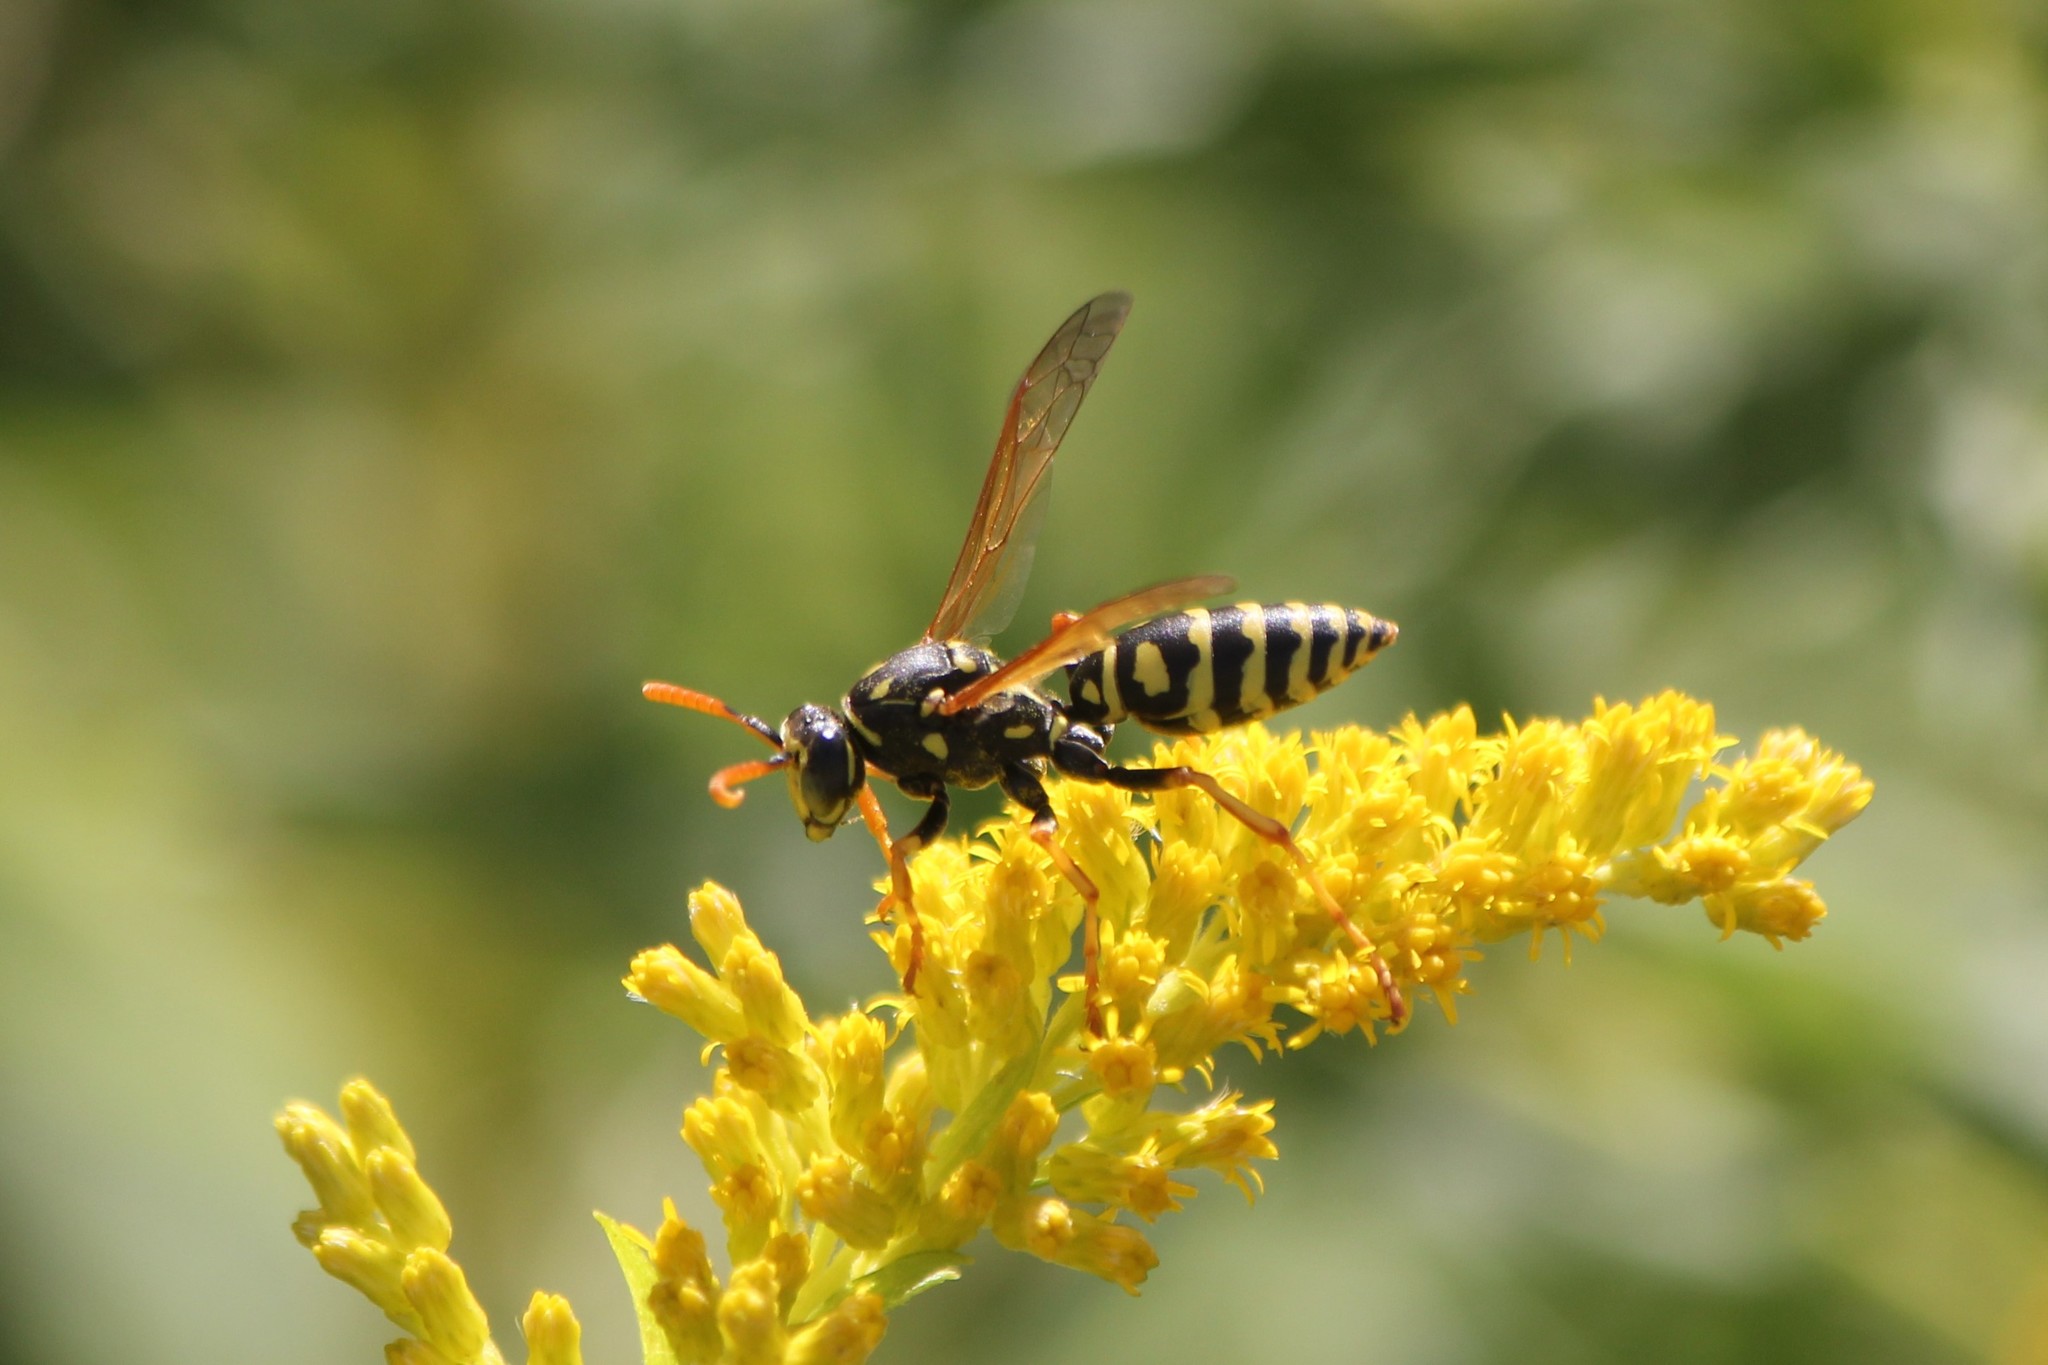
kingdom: Animalia
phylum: Arthropoda
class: Insecta
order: Hymenoptera
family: Eumenidae
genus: Polistes
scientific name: Polistes dominula
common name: Paper wasp
